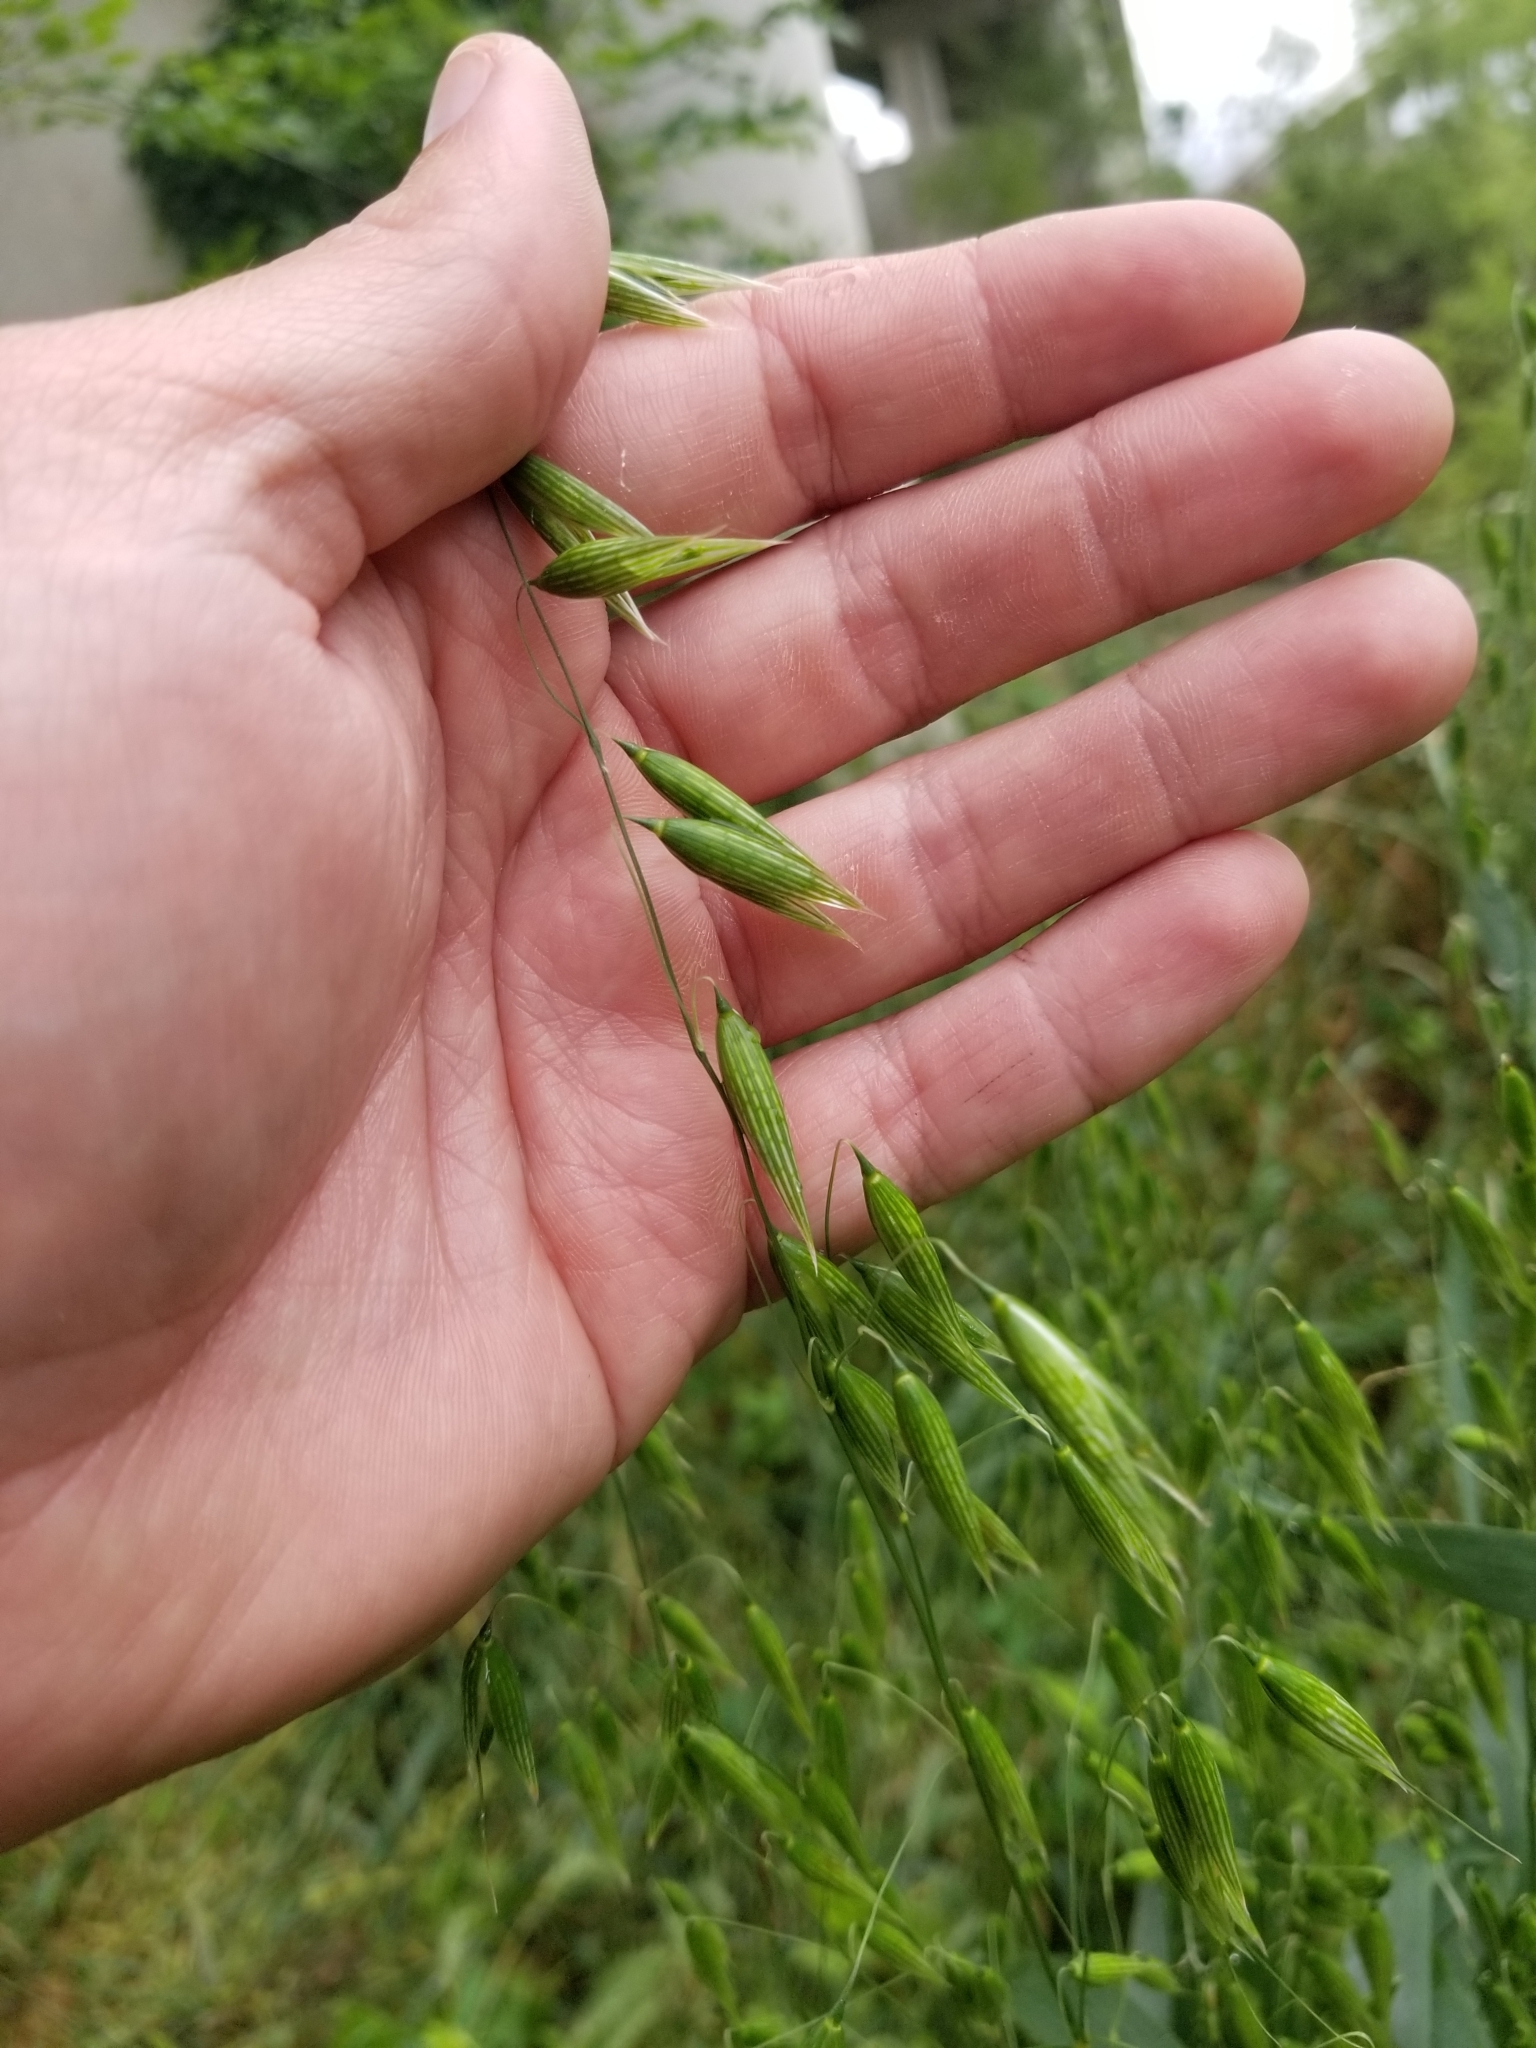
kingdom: Plantae
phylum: Tracheophyta
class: Liliopsida
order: Poales
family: Poaceae
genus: Avena
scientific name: Avena fatua
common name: Wild oat
